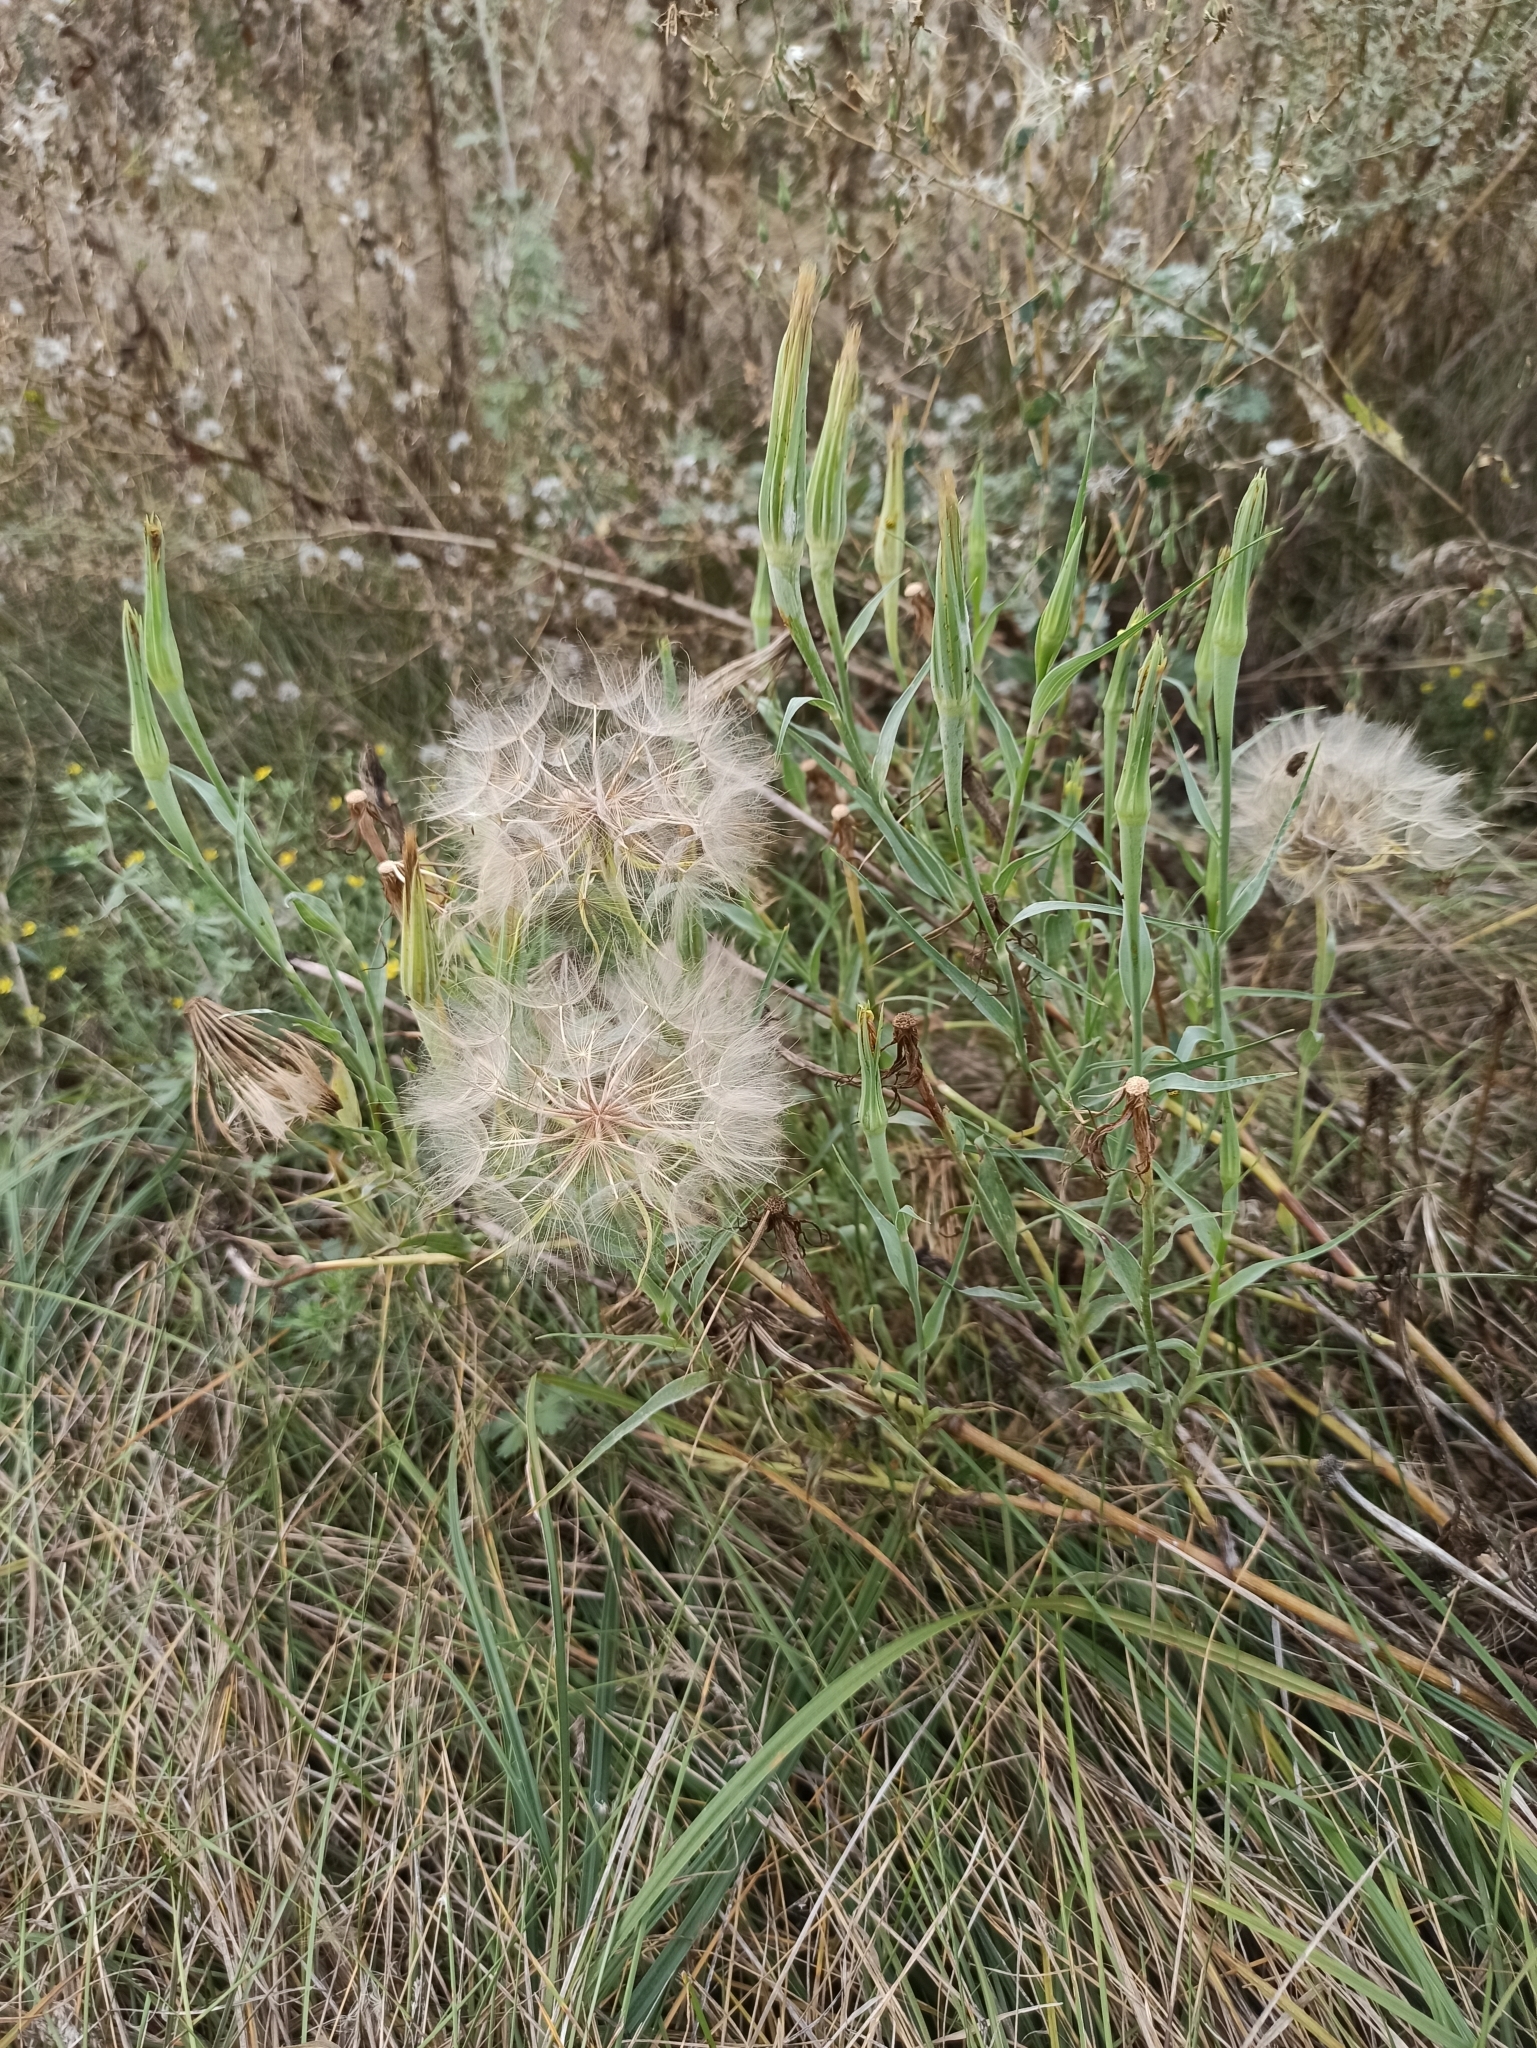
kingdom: Plantae
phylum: Tracheophyta
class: Magnoliopsida
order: Asterales
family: Asteraceae
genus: Tragopogon
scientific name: Tragopogon dubius
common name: Yellow salsify
